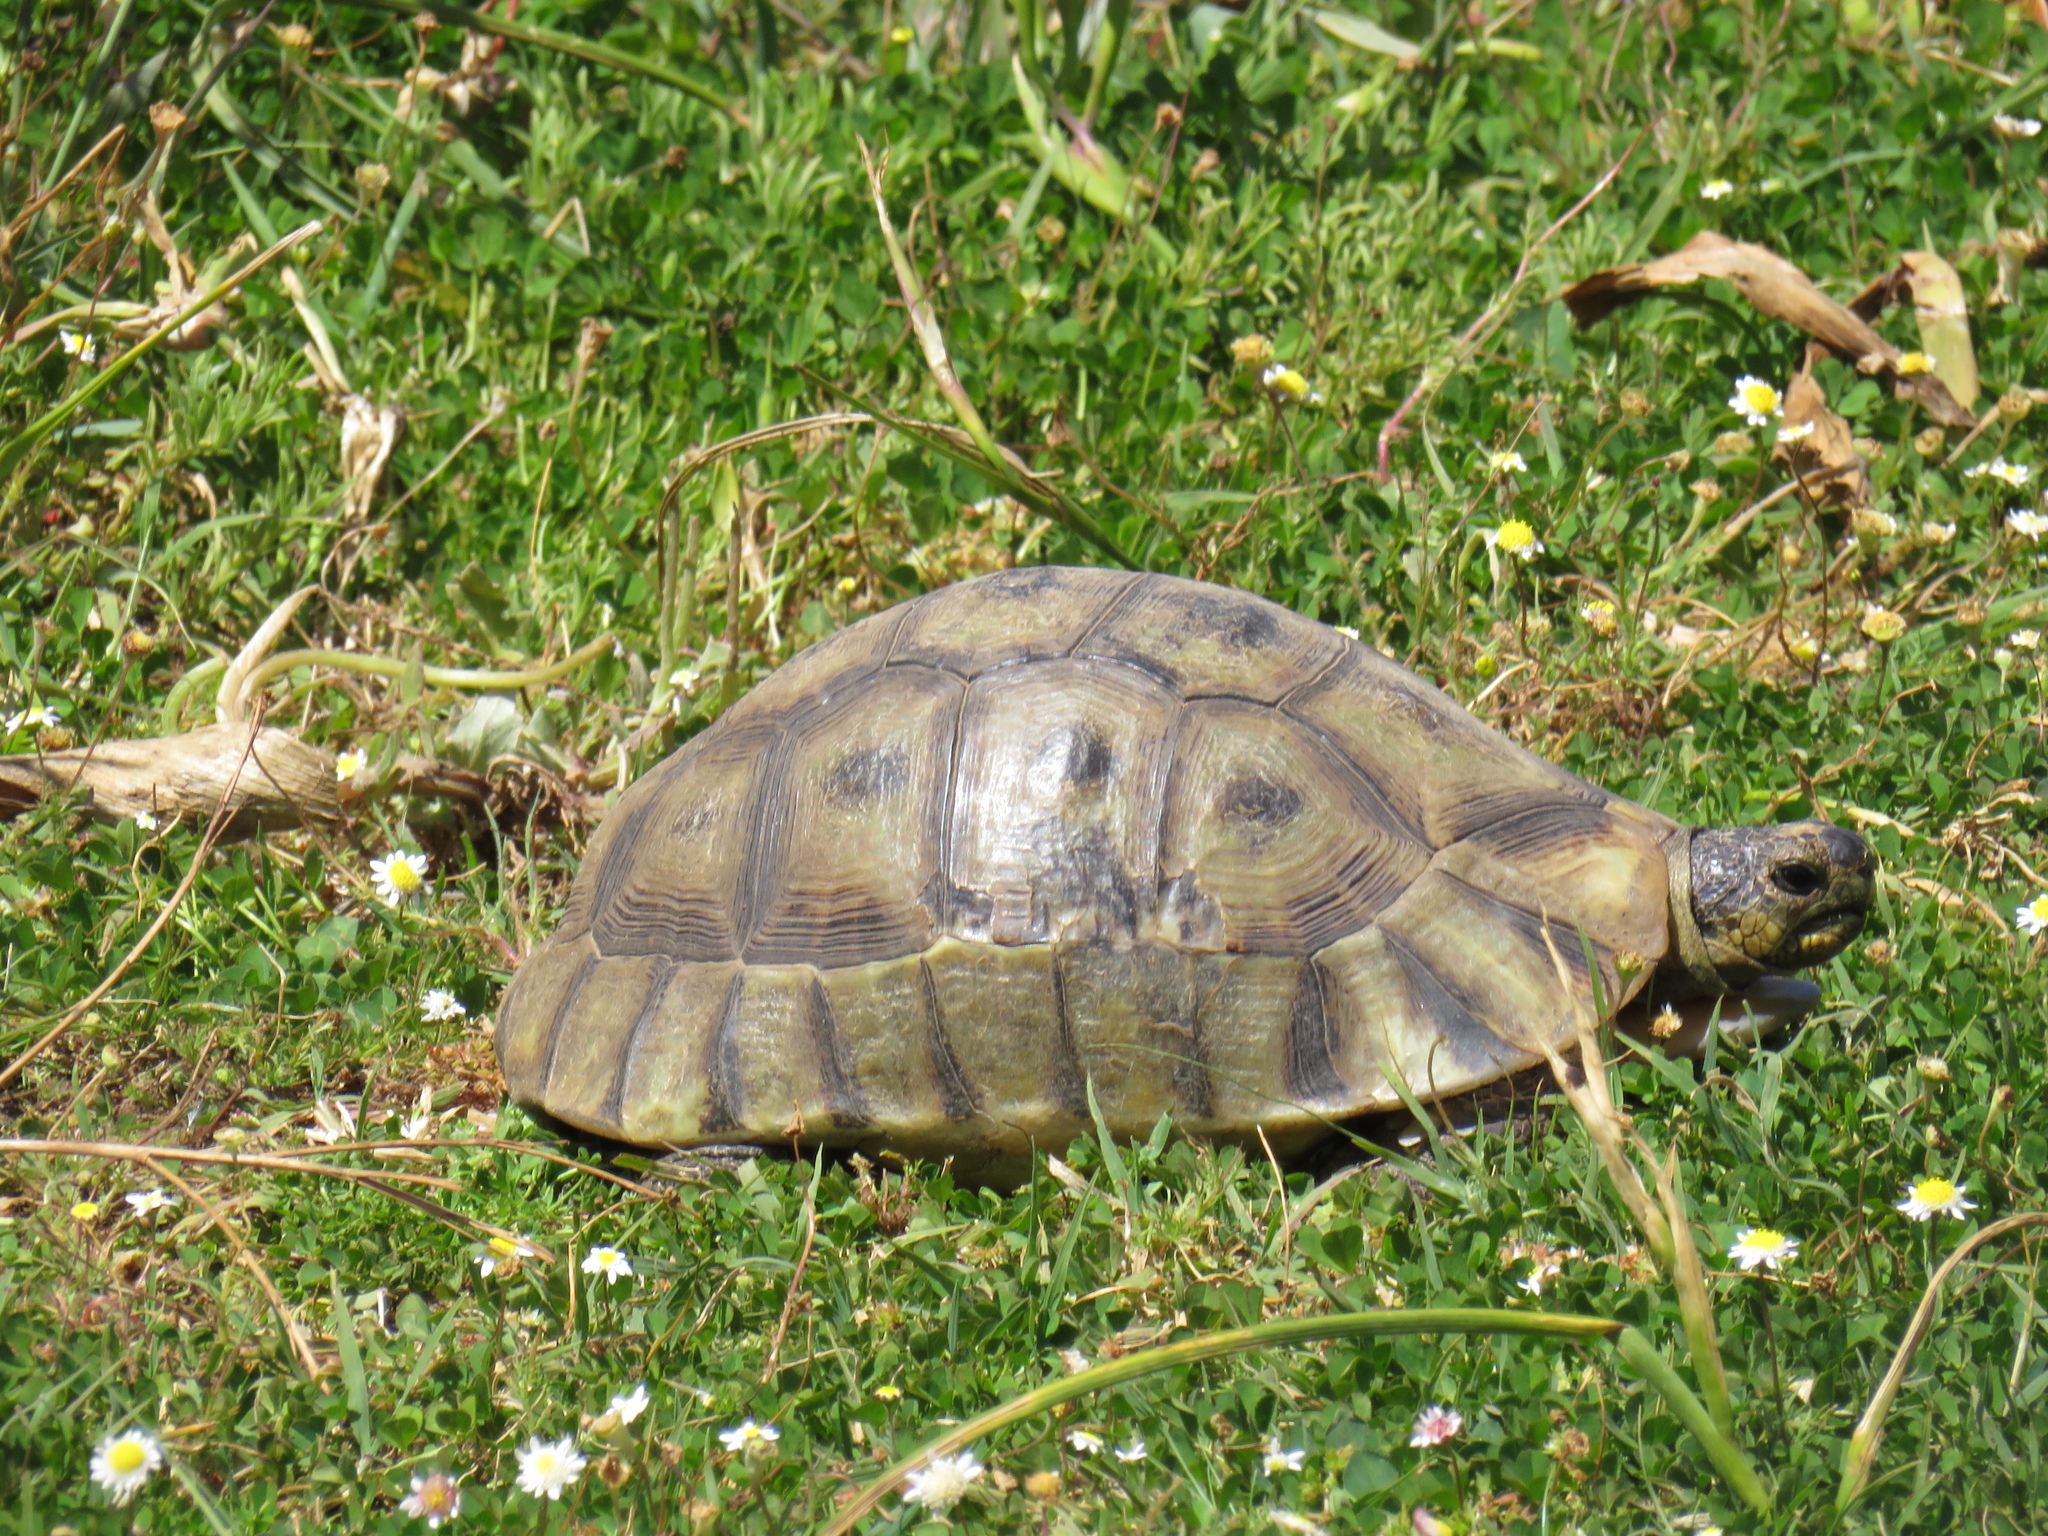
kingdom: Animalia
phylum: Chordata
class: Testudines
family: Testudinidae
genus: Chersina
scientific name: Chersina angulata
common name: South african bowsprit tortoise
